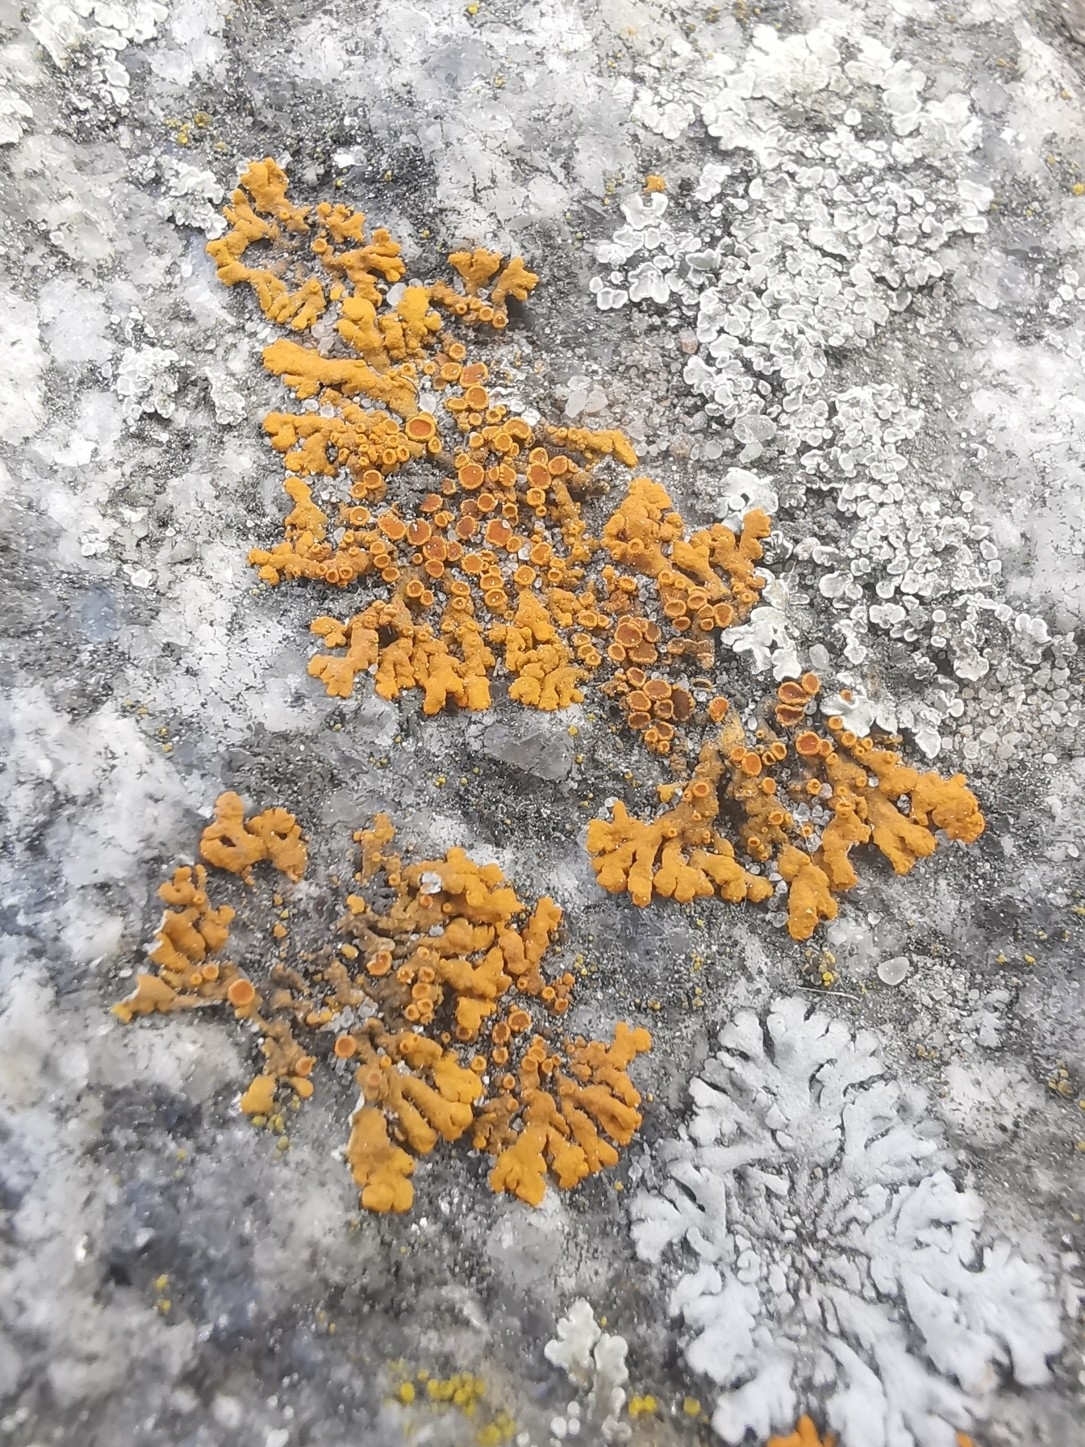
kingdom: Fungi
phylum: Ascomycota
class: Lecanoromycetes
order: Teloschistales
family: Teloschistaceae
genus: Xanthoria
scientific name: Xanthoria elegans
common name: Elegant sunburst lichen
